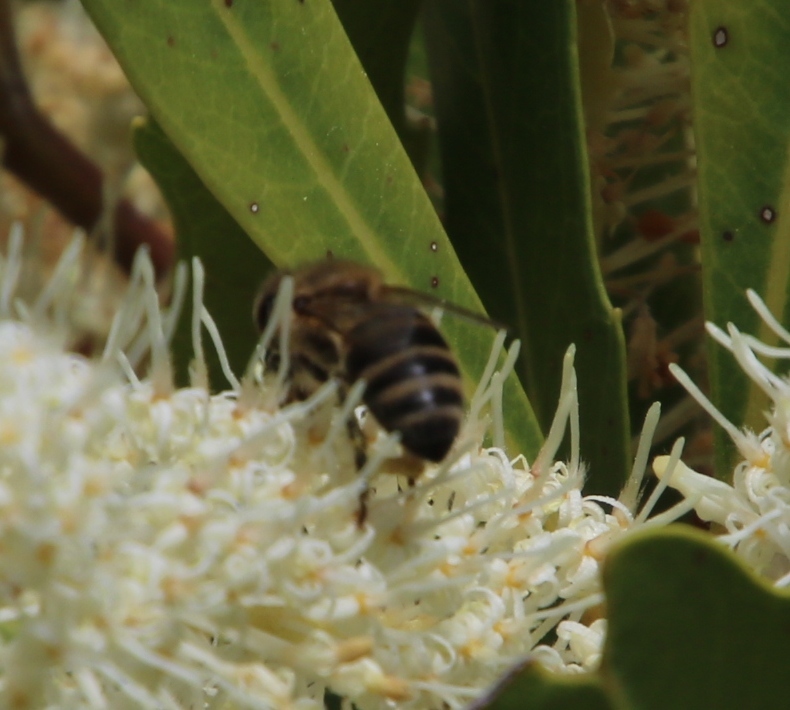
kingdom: Animalia
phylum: Arthropoda
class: Insecta
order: Hymenoptera
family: Apidae
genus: Apis
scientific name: Apis mellifera
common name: Honey bee
